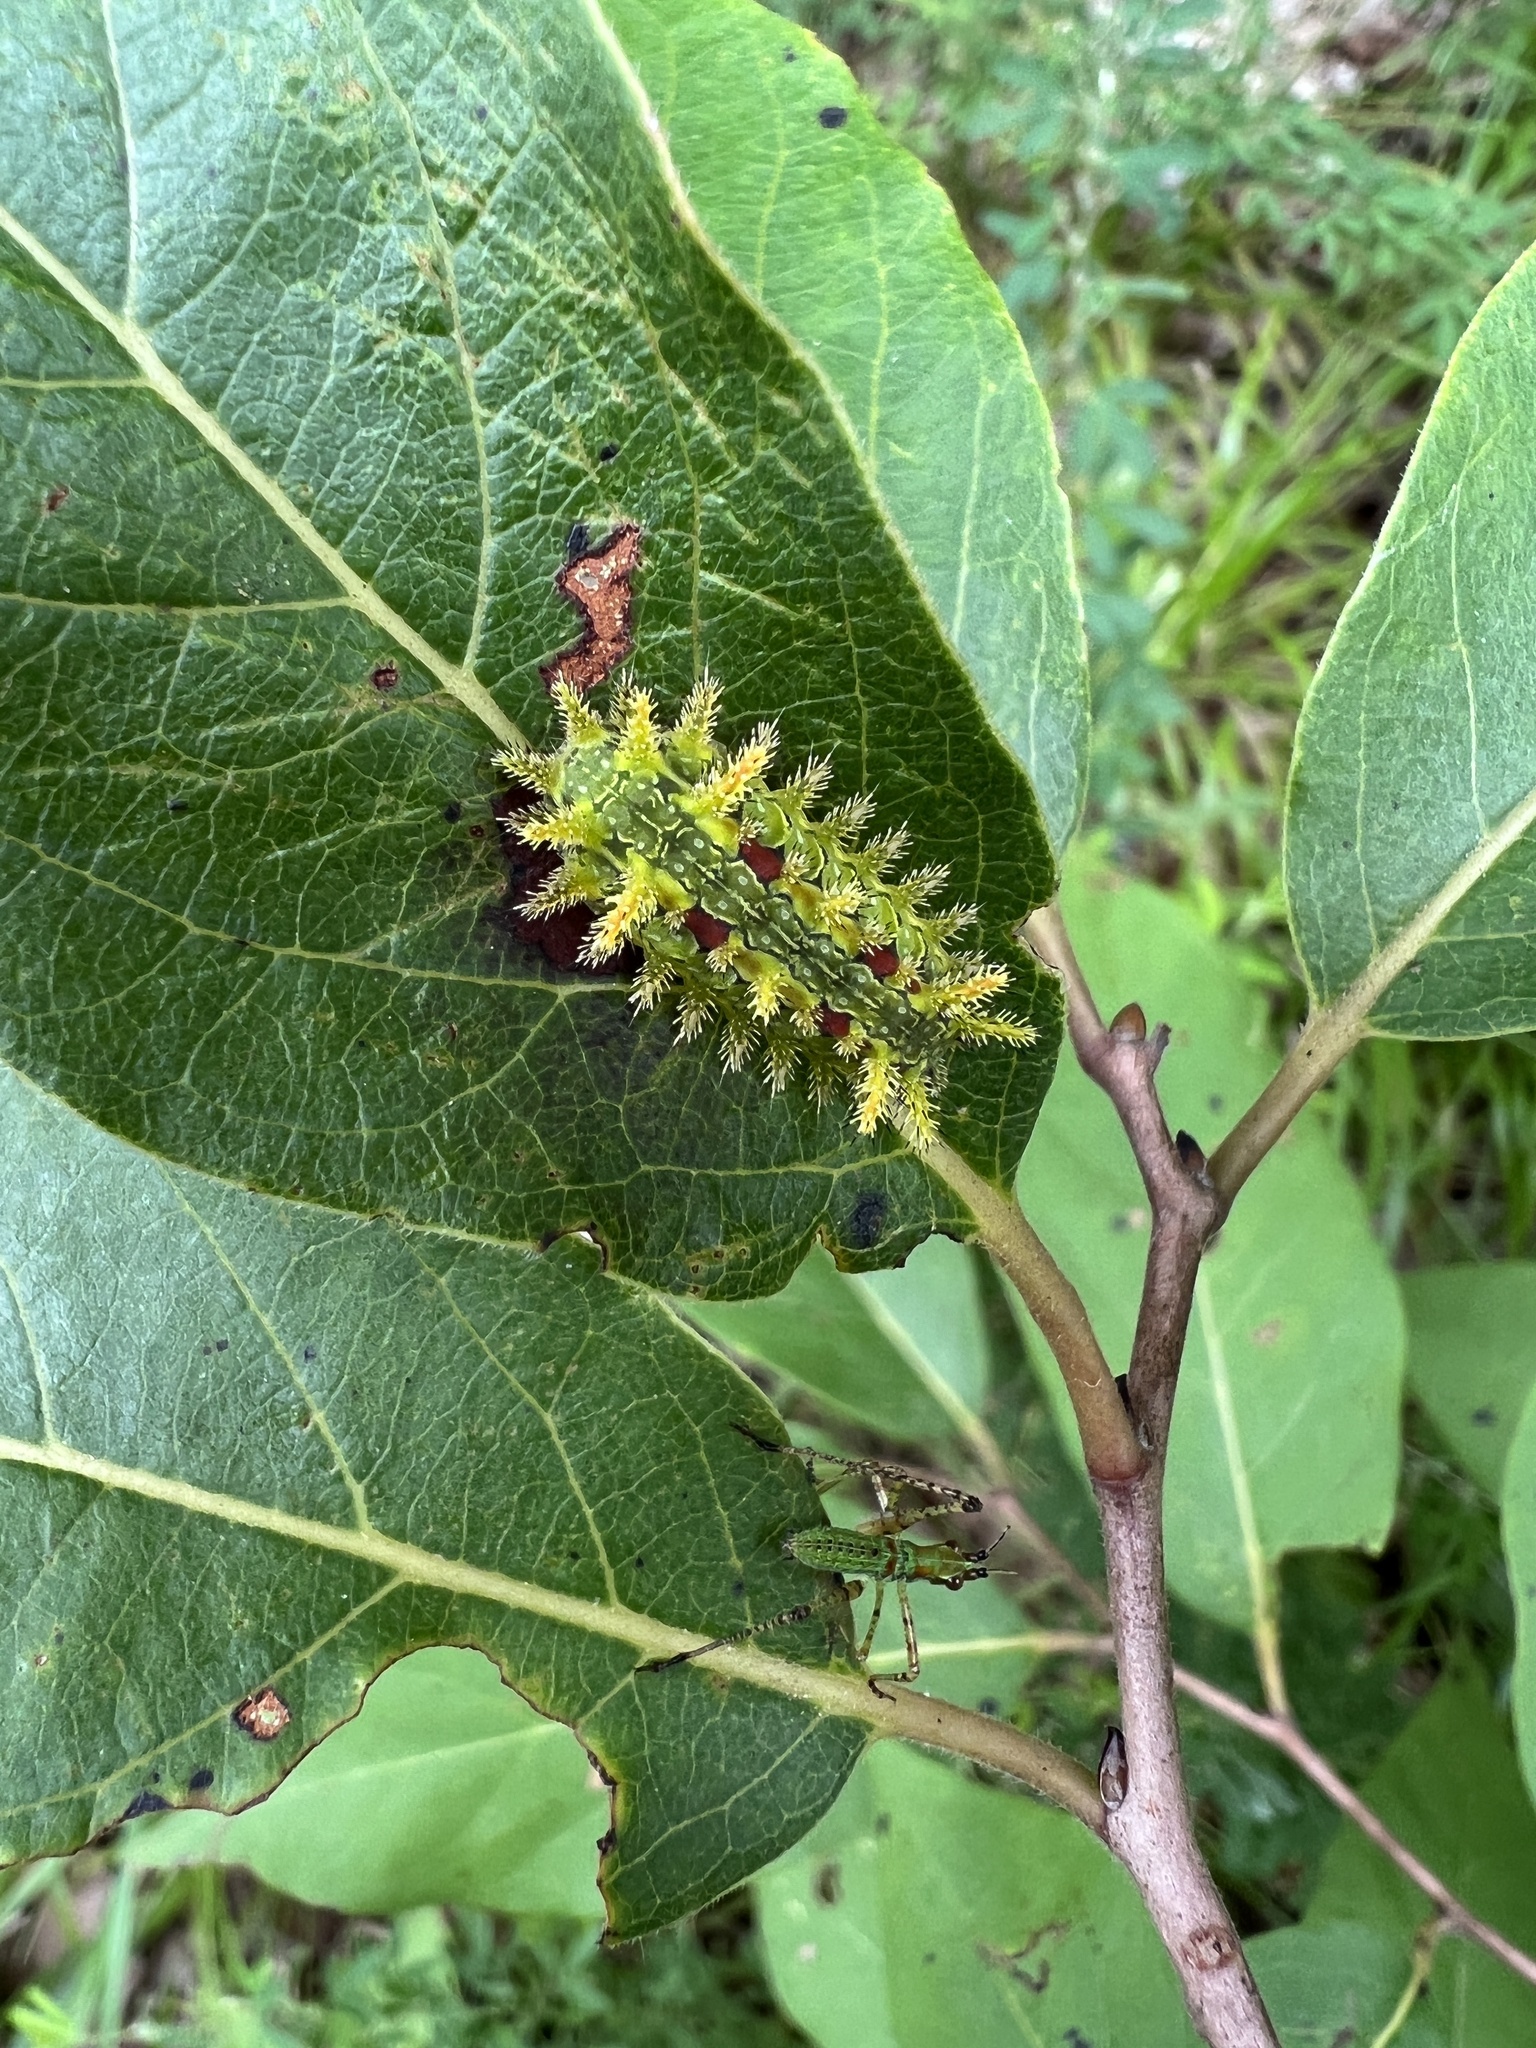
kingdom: Animalia
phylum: Arthropoda
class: Insecta
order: Lepidoptera
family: Limacodidae
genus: Euclea
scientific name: Euclea delphinii
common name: Spiny oak-slug moth
